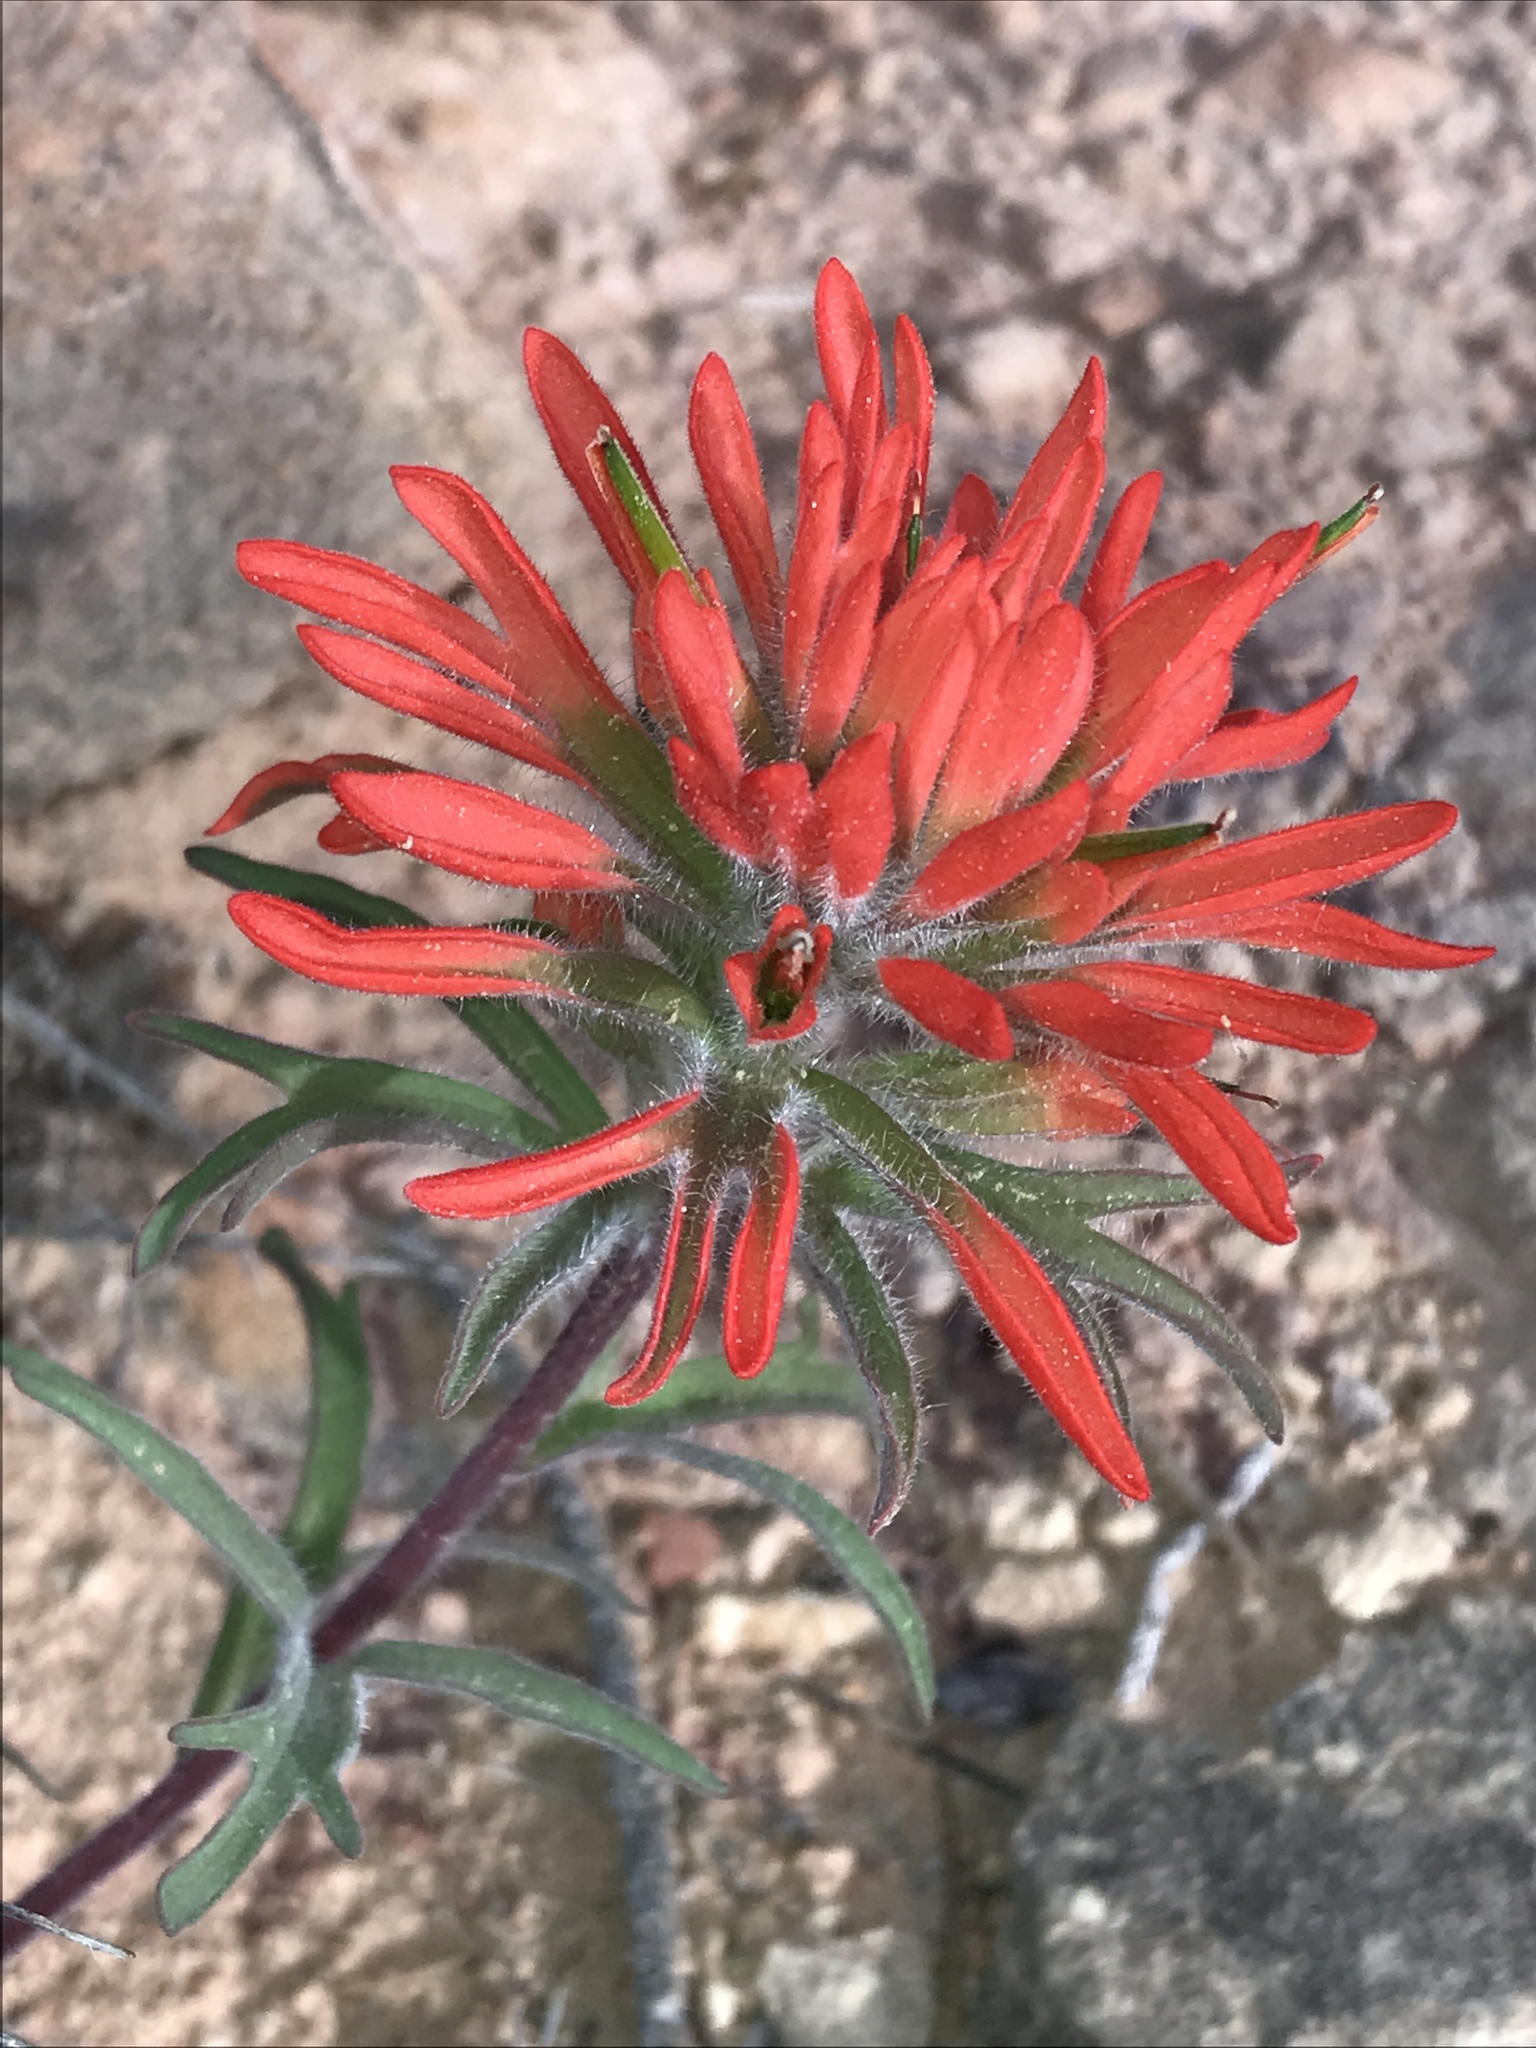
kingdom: Plantae
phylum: Tracheophyta
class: Magnoliopsida
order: Lamiales
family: Orobanchaceae
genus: Castilleja
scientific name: Castilleja chromosa
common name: Desert paintbrush
